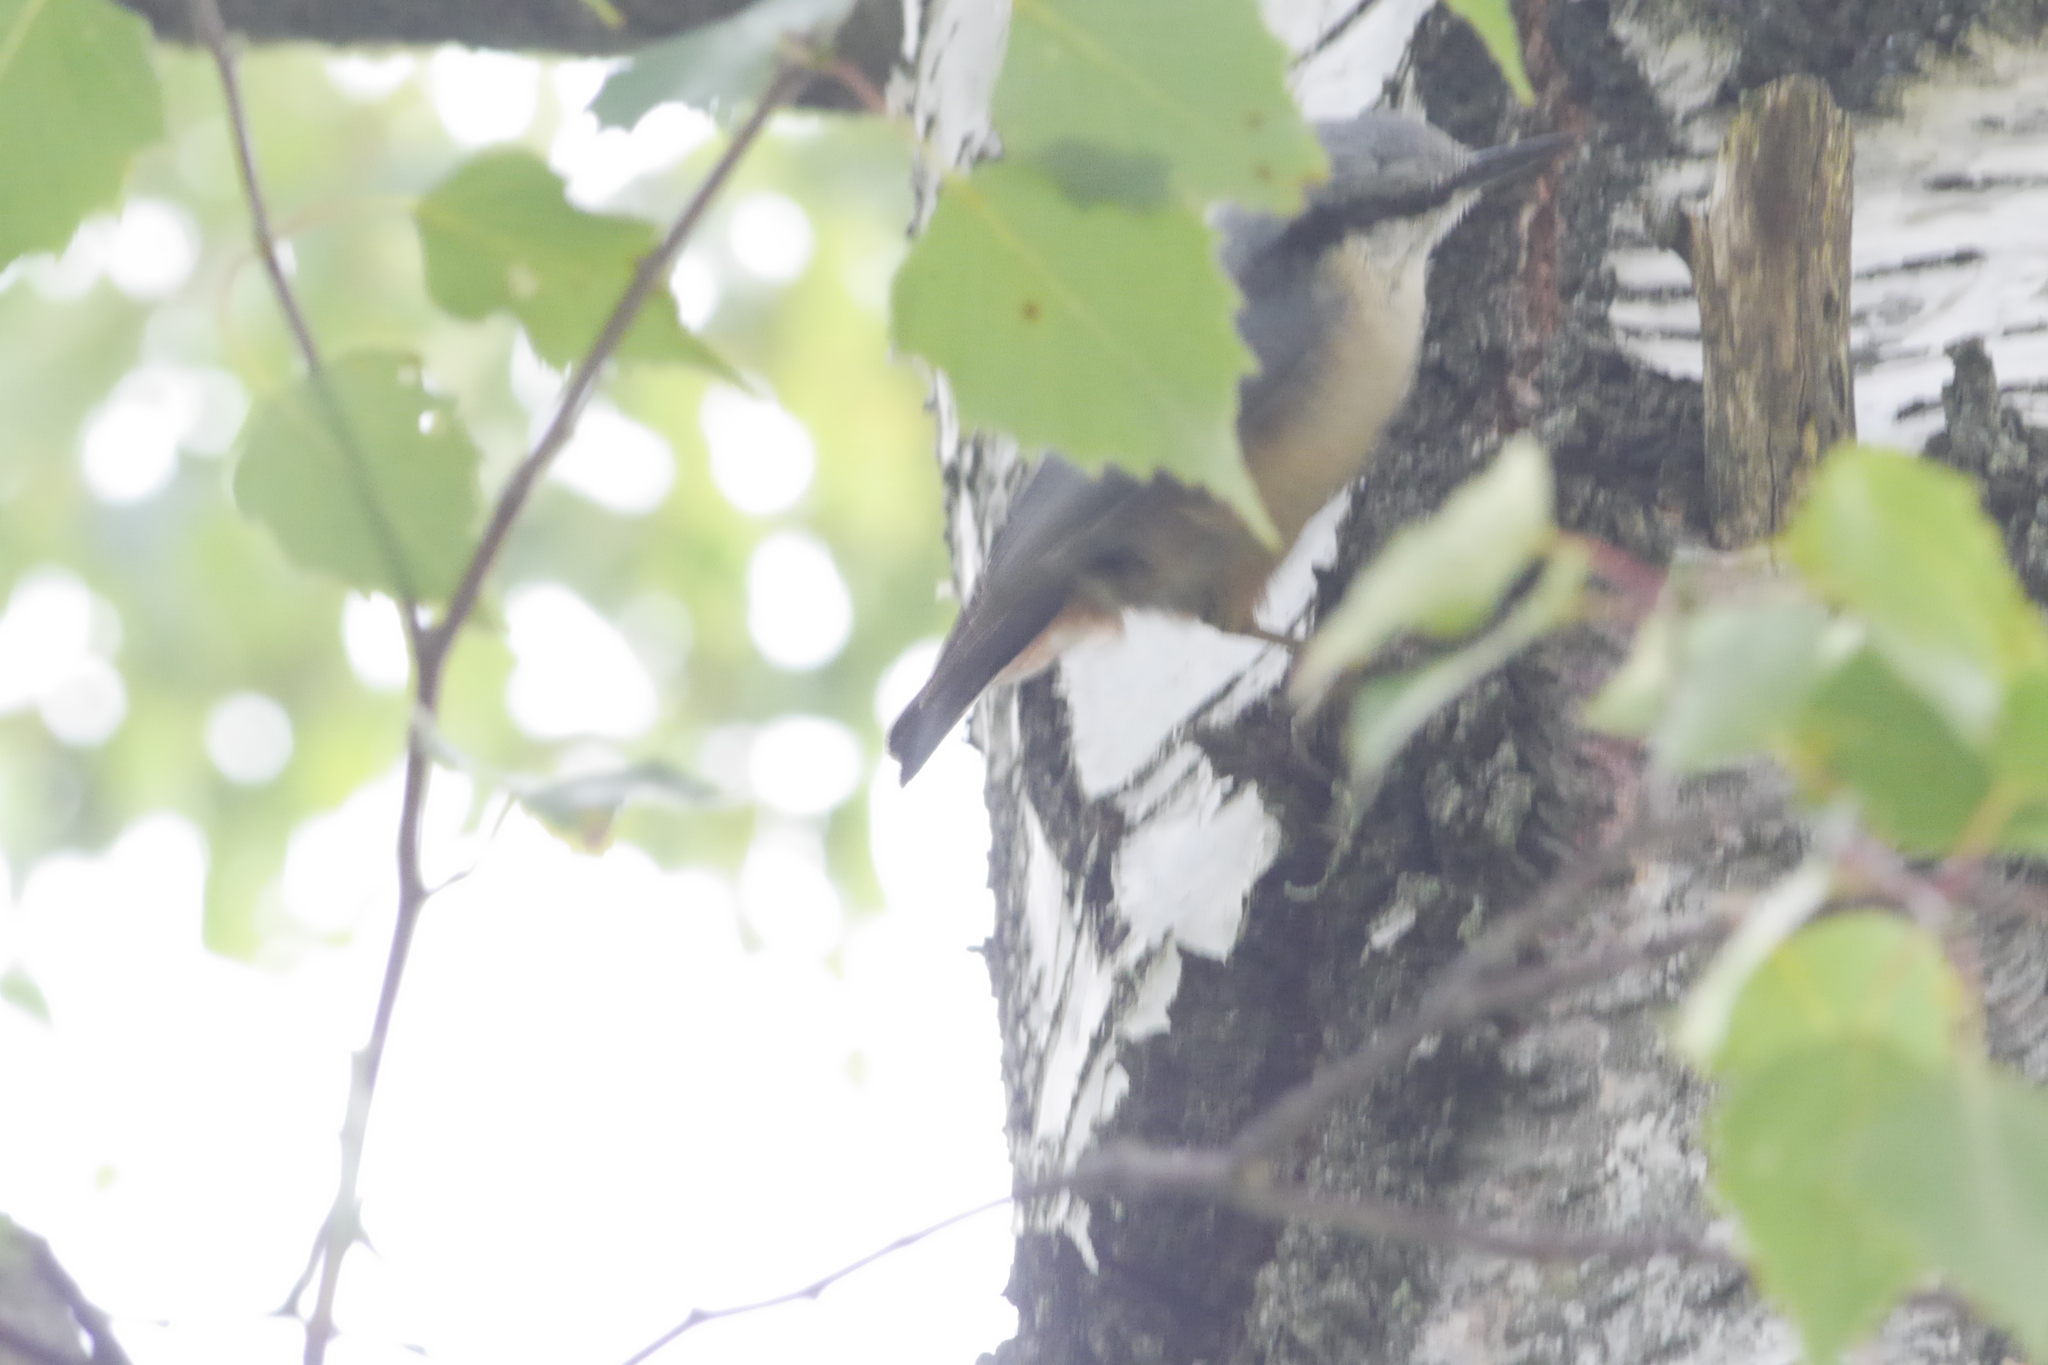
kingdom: Animalia
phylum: Chordata
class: Aves
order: Passeriformes
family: Sittidae
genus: Sitta
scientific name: Sitta europaea
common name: Eurasian nuthatch
